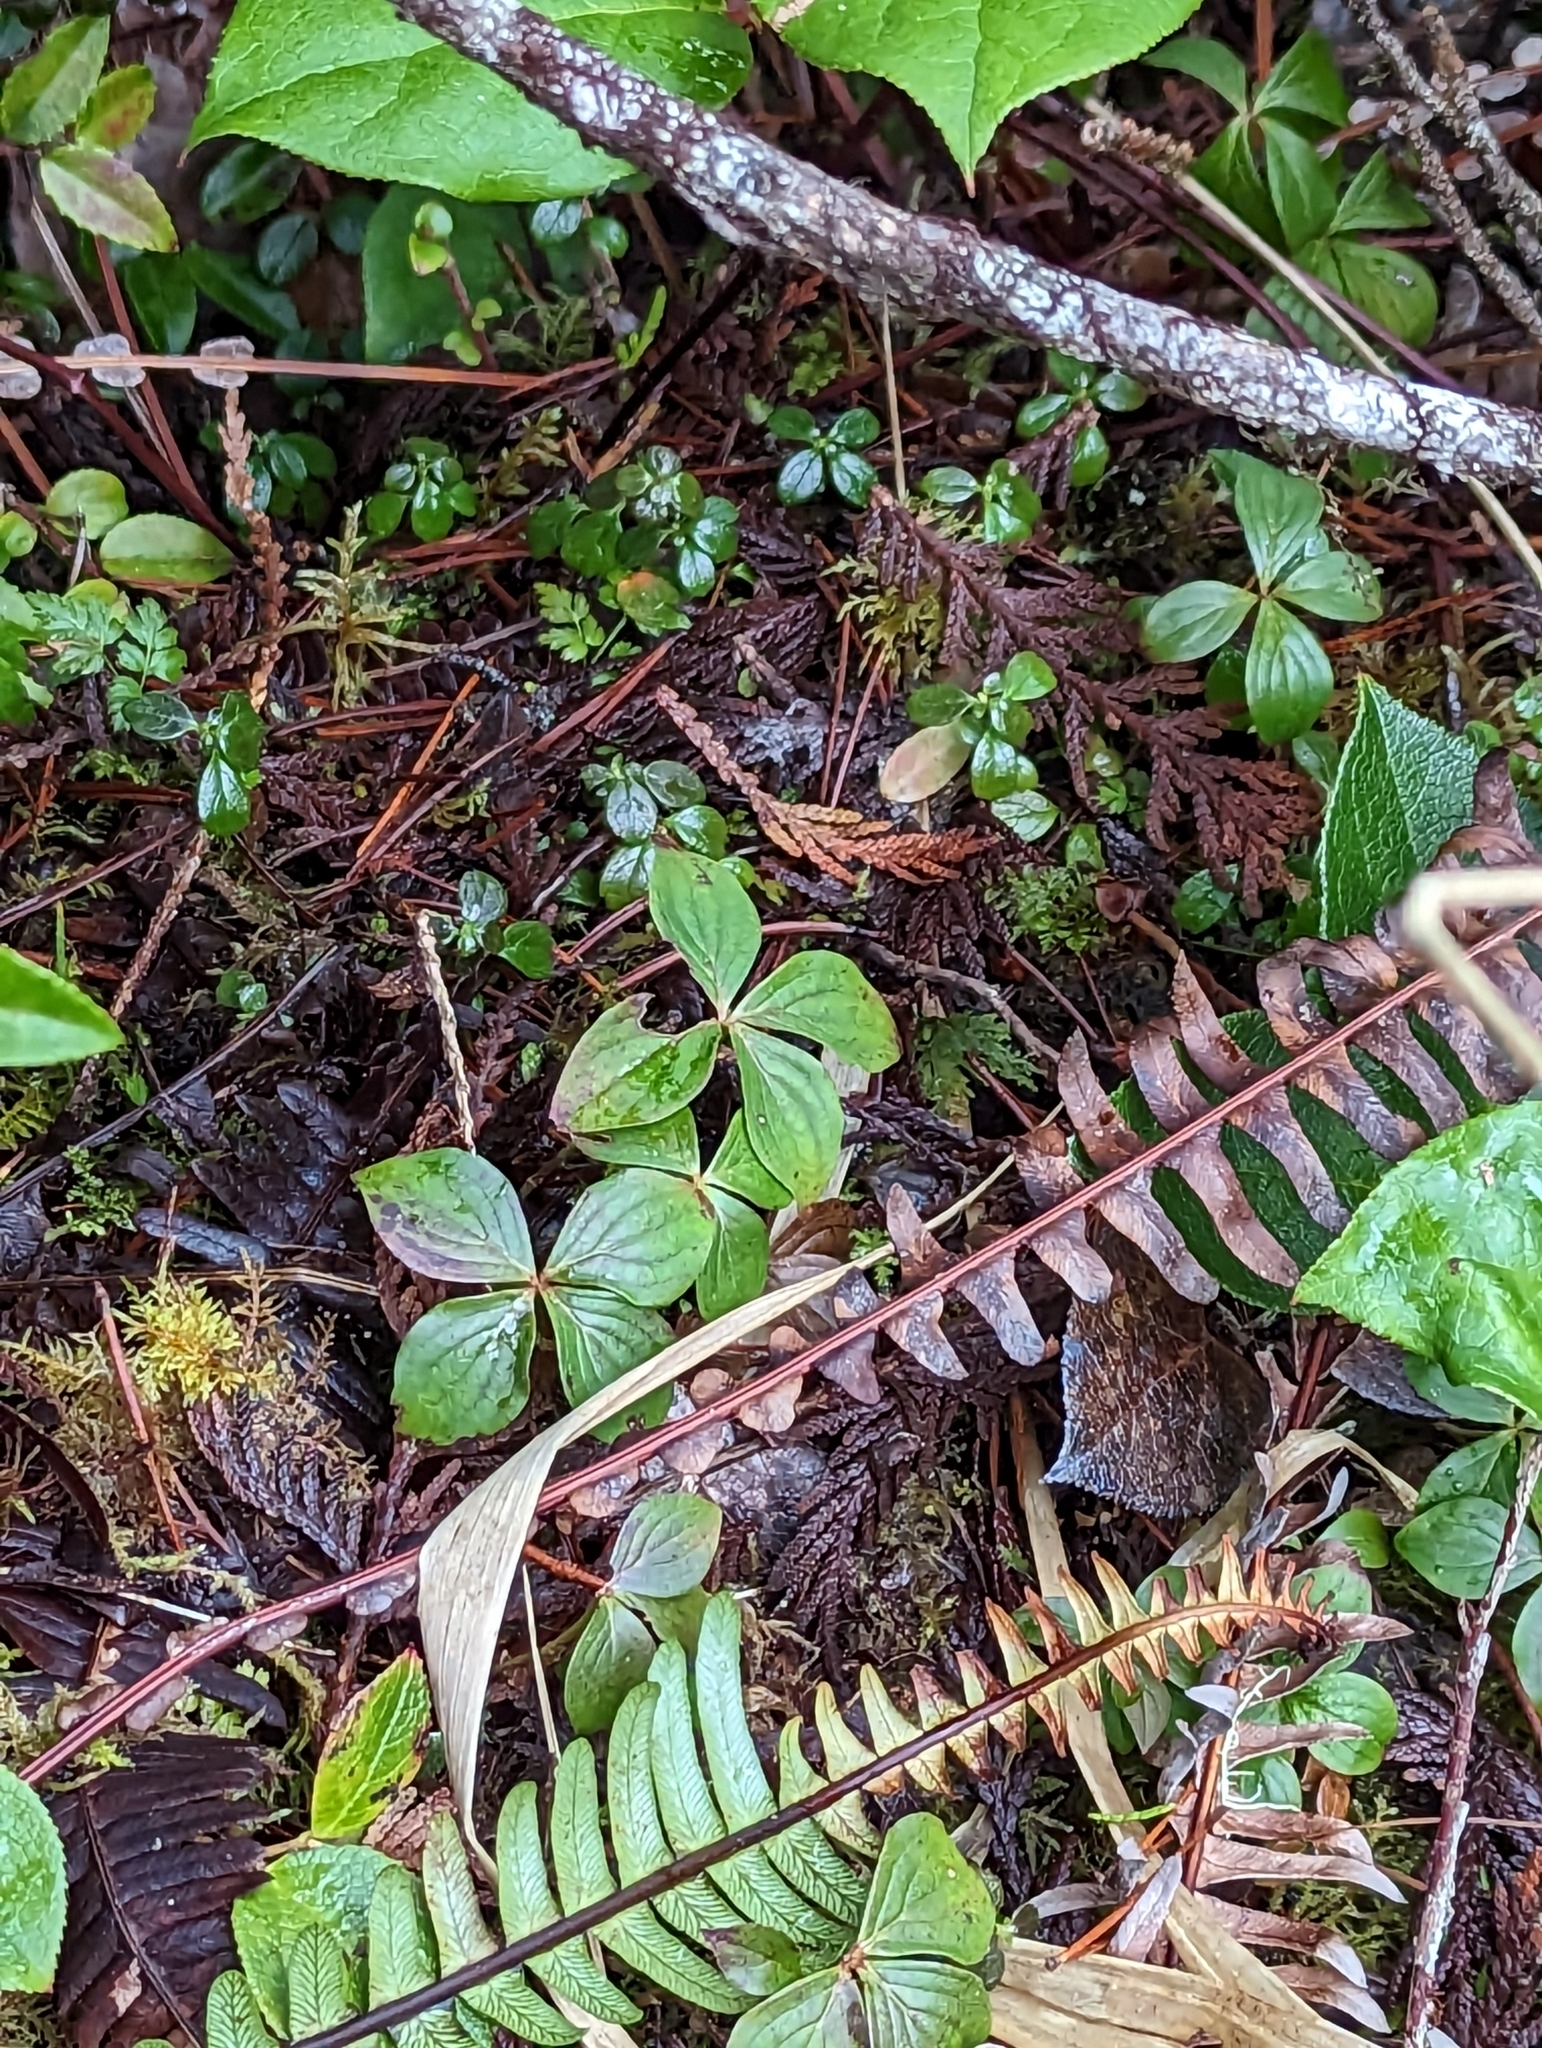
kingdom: Plantae
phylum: Tracheophyta
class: Magnoliopsida
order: Cornales
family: Cornaceae
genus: Cornus
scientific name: Cornus unalaschkensis
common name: Alaska bunchberry
